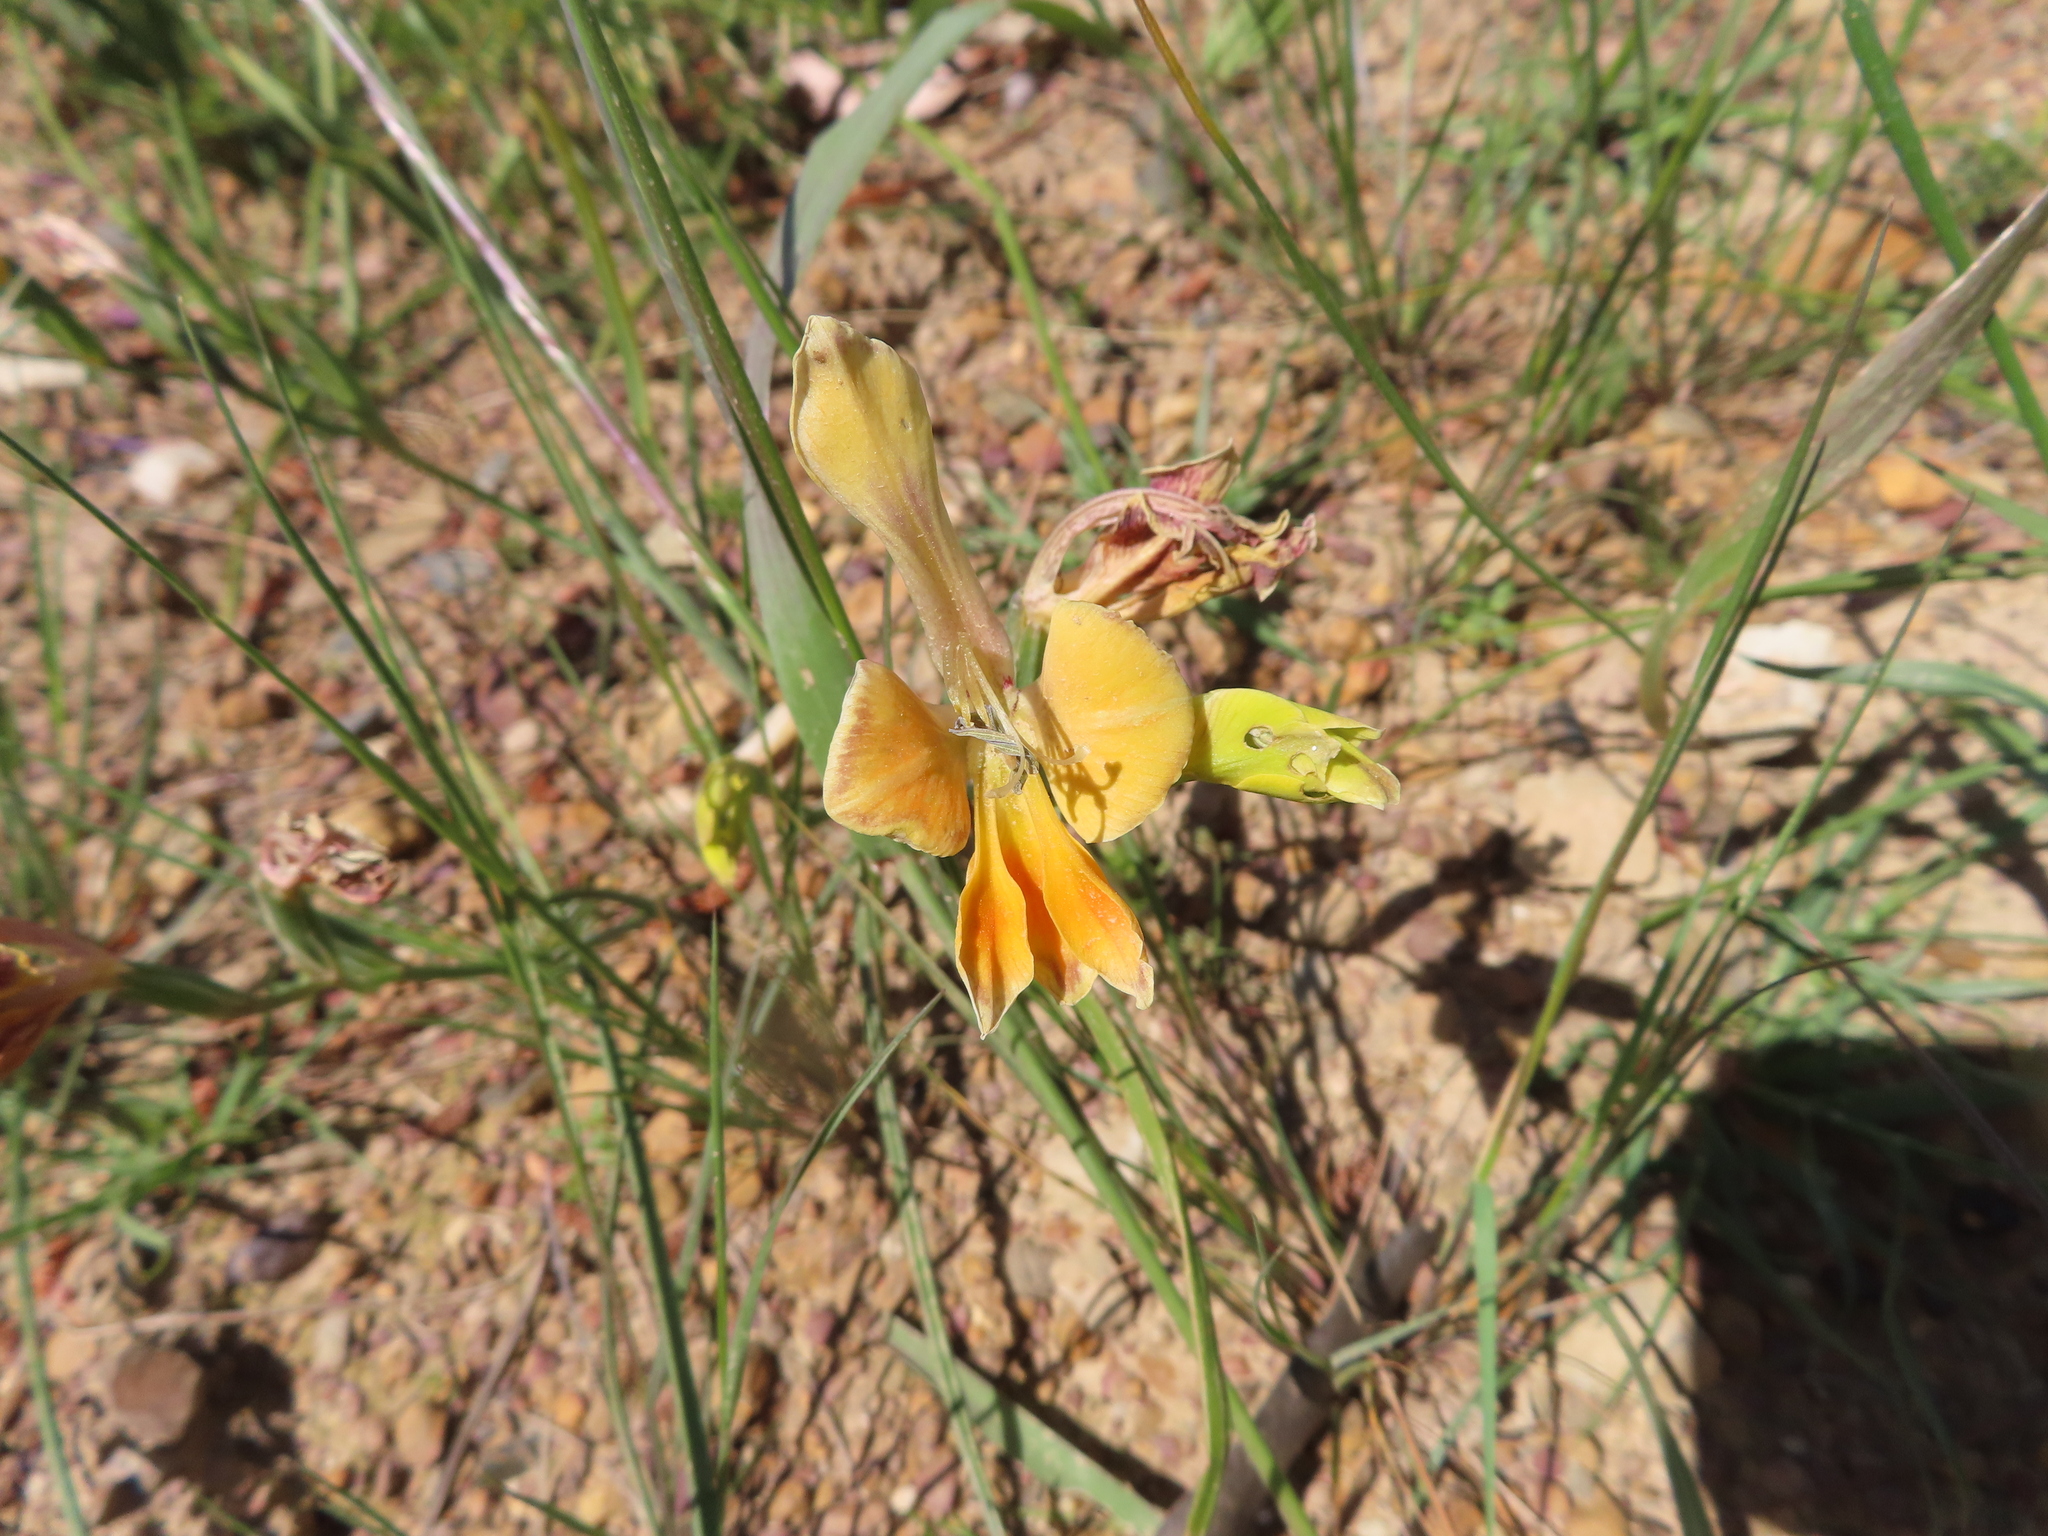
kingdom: Plantae
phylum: Tracheophyta
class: Liliopsida
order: Asparagales
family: Iridaceae
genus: Gladiolus
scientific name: Gladiolus virescens
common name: Yellow kalkoentjie
